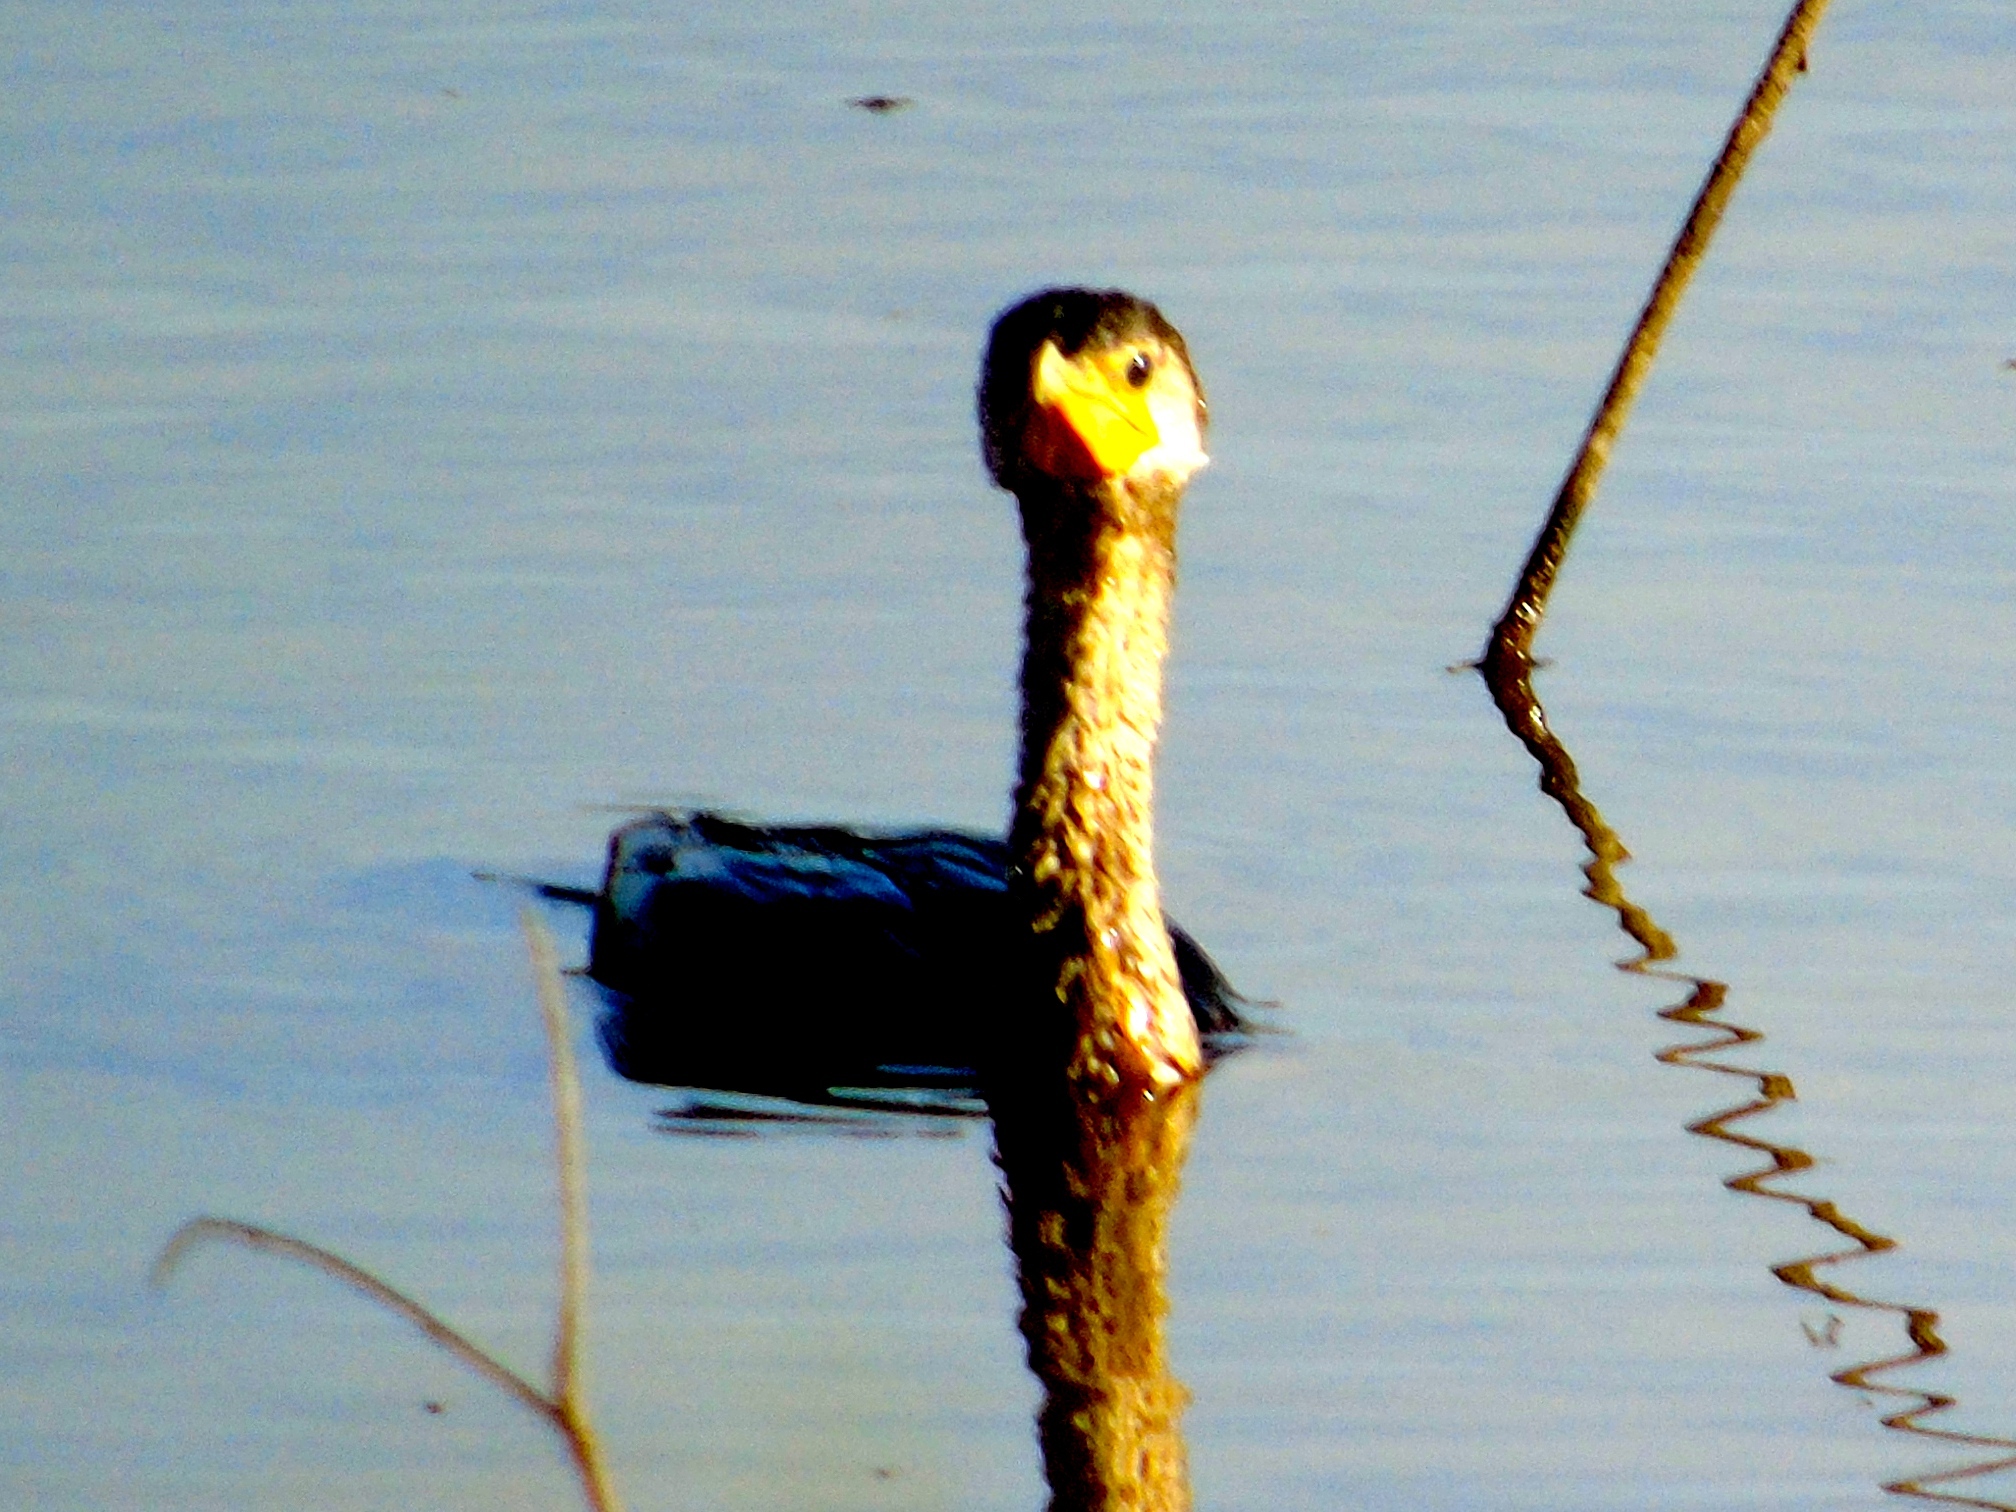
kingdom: Animalia
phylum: Chordata
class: Aves
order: Suliformes
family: Phalacrocoracidae
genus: Phalacrocorax
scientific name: Phalacrocorax brasilianus
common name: Neotropic cormorant
